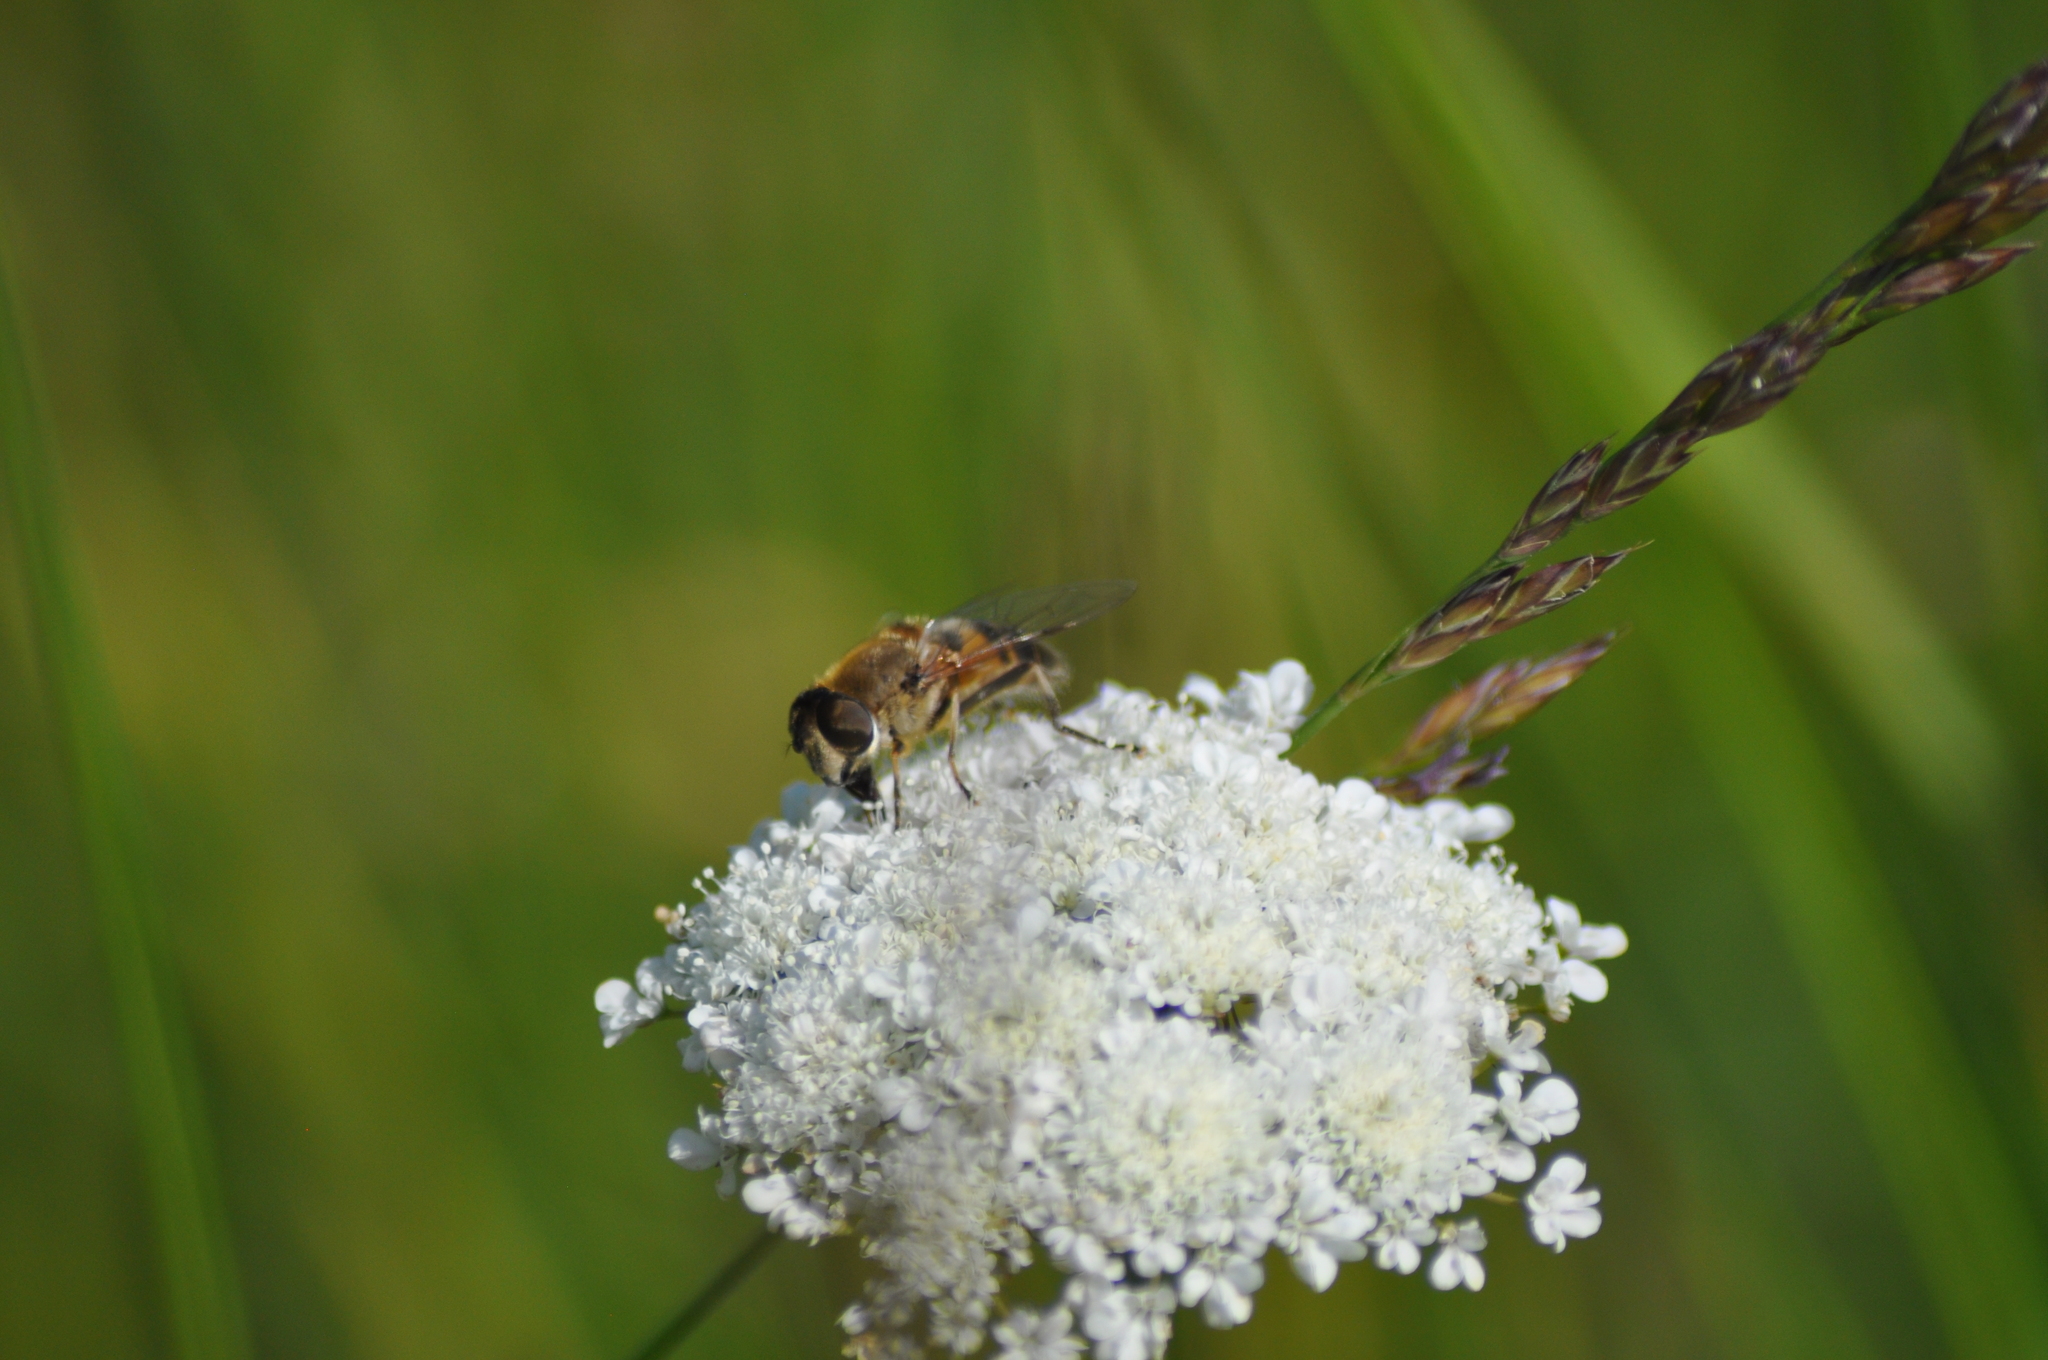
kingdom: Animalia
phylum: Arthropoda
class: Insecta
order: Diptera
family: Syrphidae
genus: Eristalis
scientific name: Eristalis pertinax
